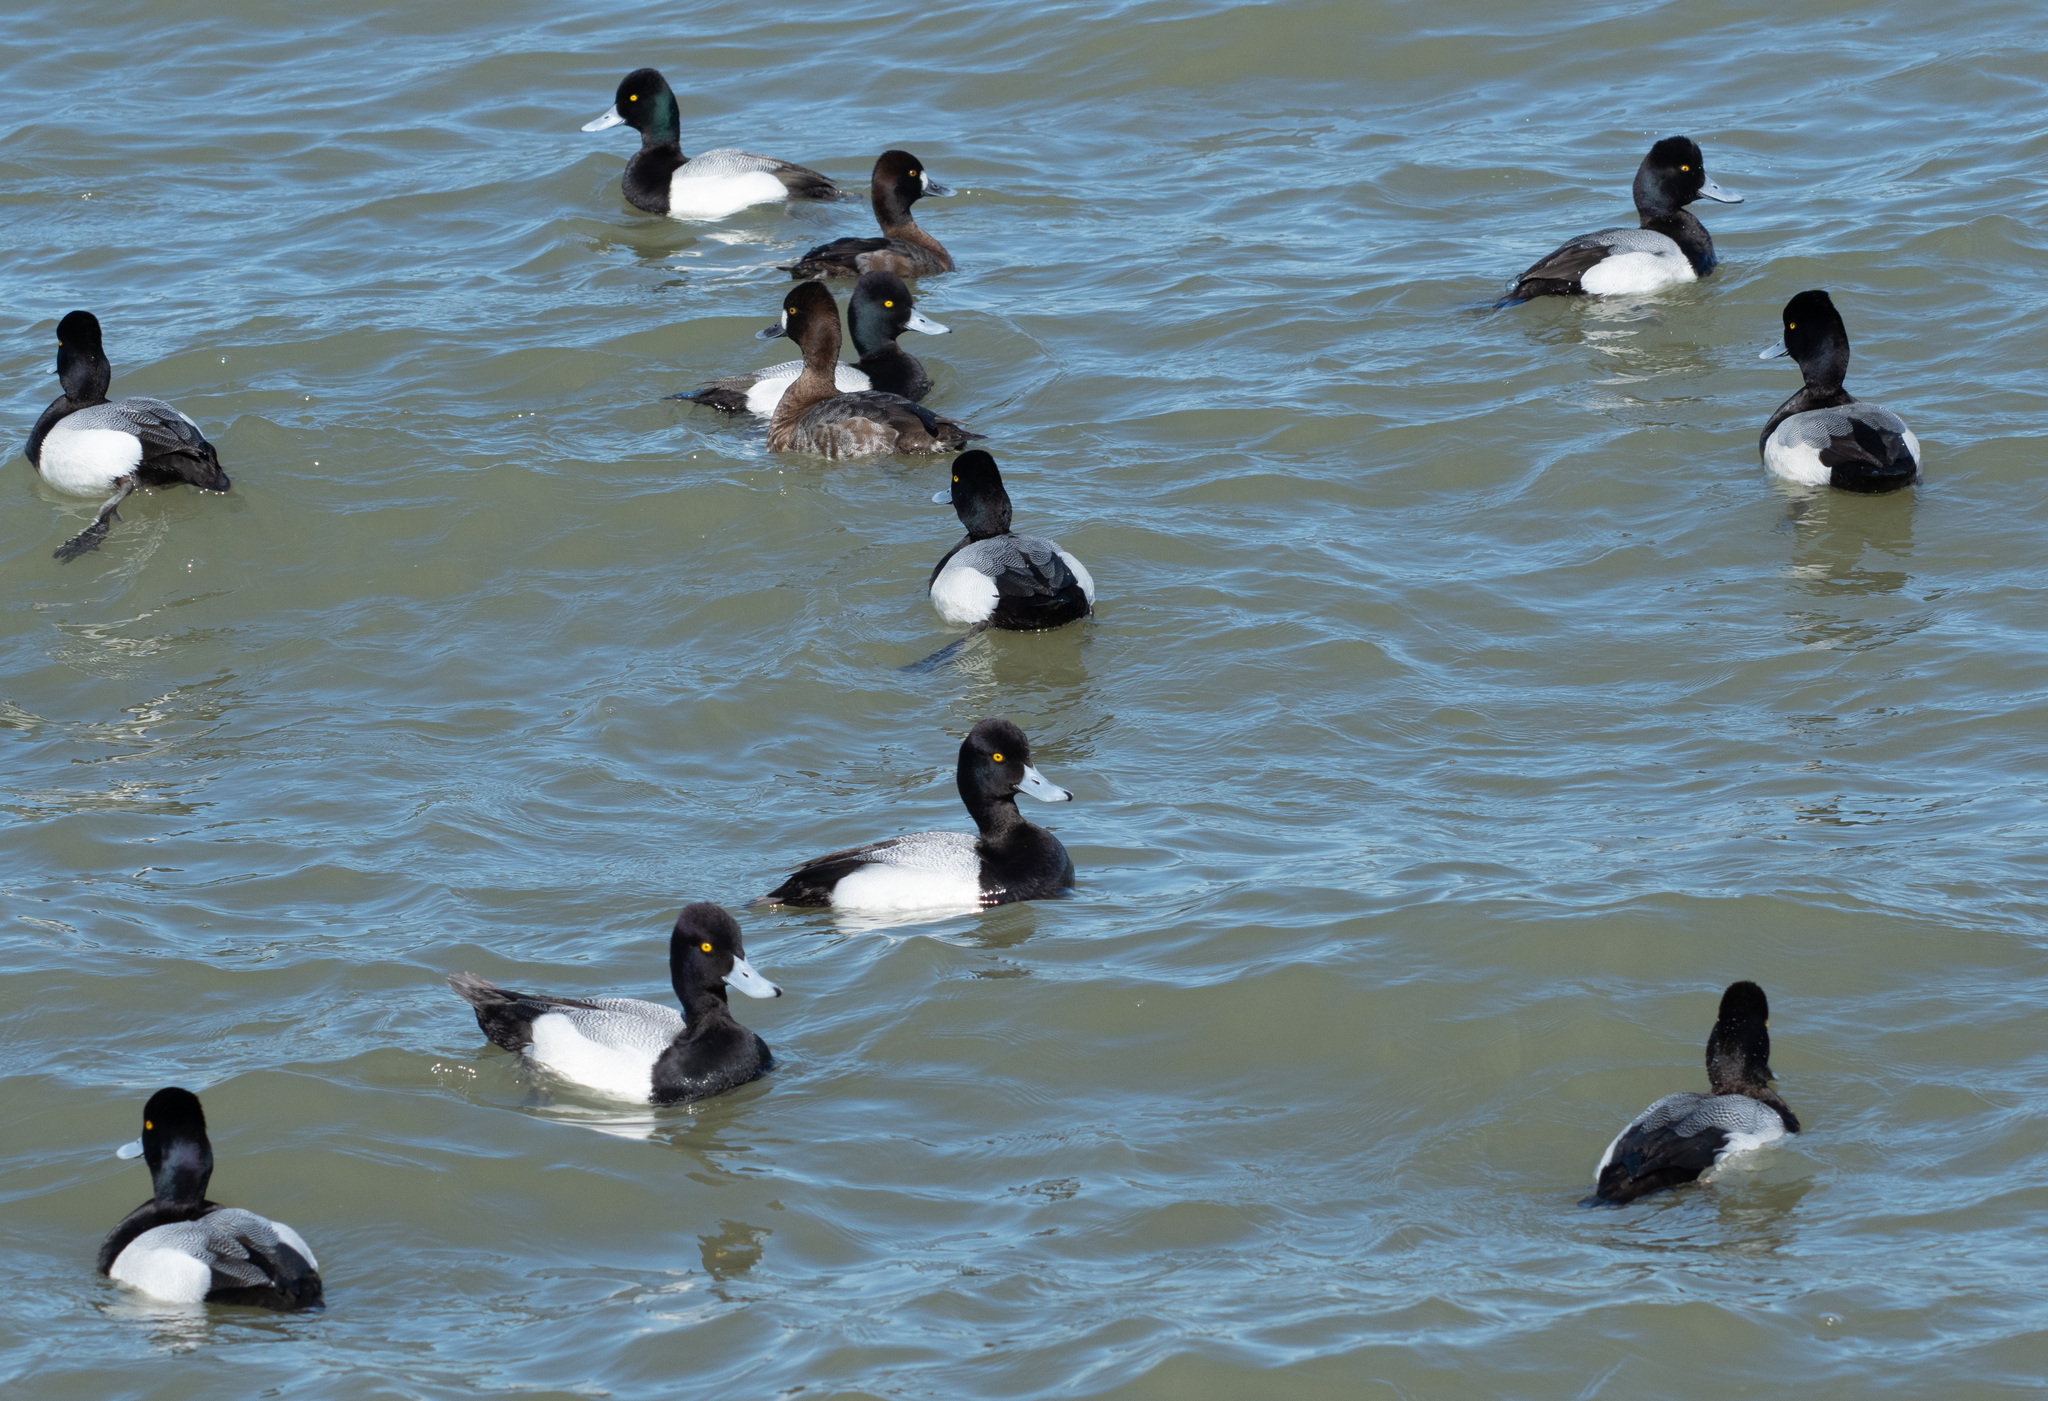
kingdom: Animalia
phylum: Chordata
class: Aves
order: Anseriformes
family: Anatidae
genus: Aythya
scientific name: Aythya affinis
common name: Lesser scaup
